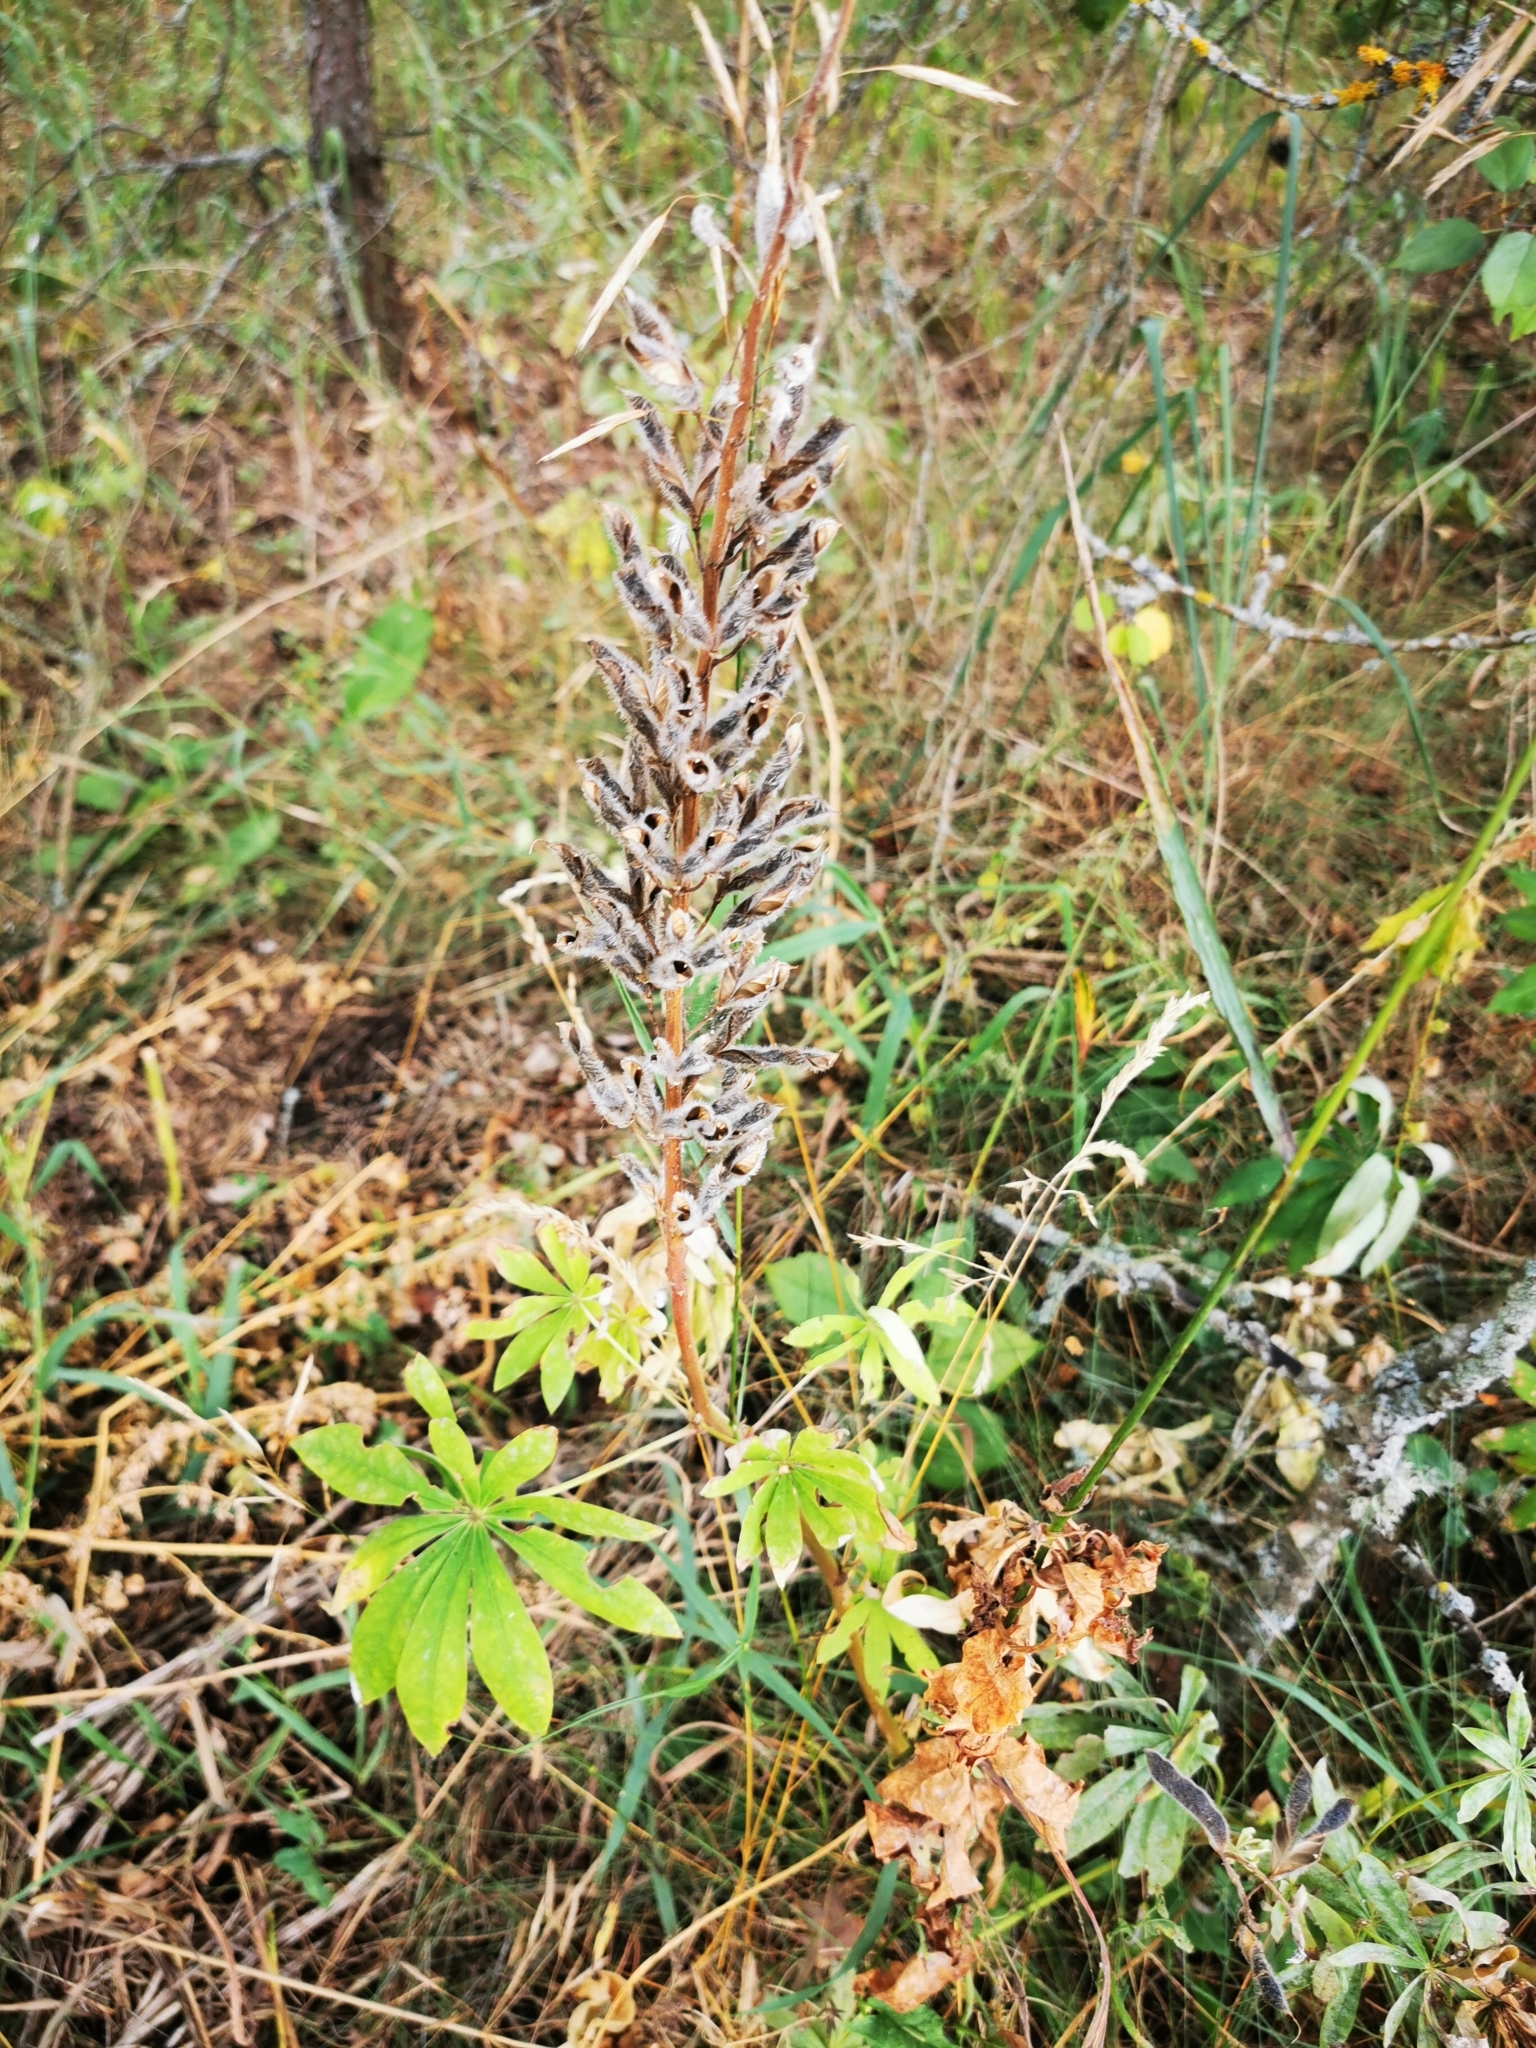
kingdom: Plantae
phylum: Tracheophyta
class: Magnoliopsida
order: Fabales
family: Fabaceae
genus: Lupinus
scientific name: Lupinus polyphyllus
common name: Garden lupin
